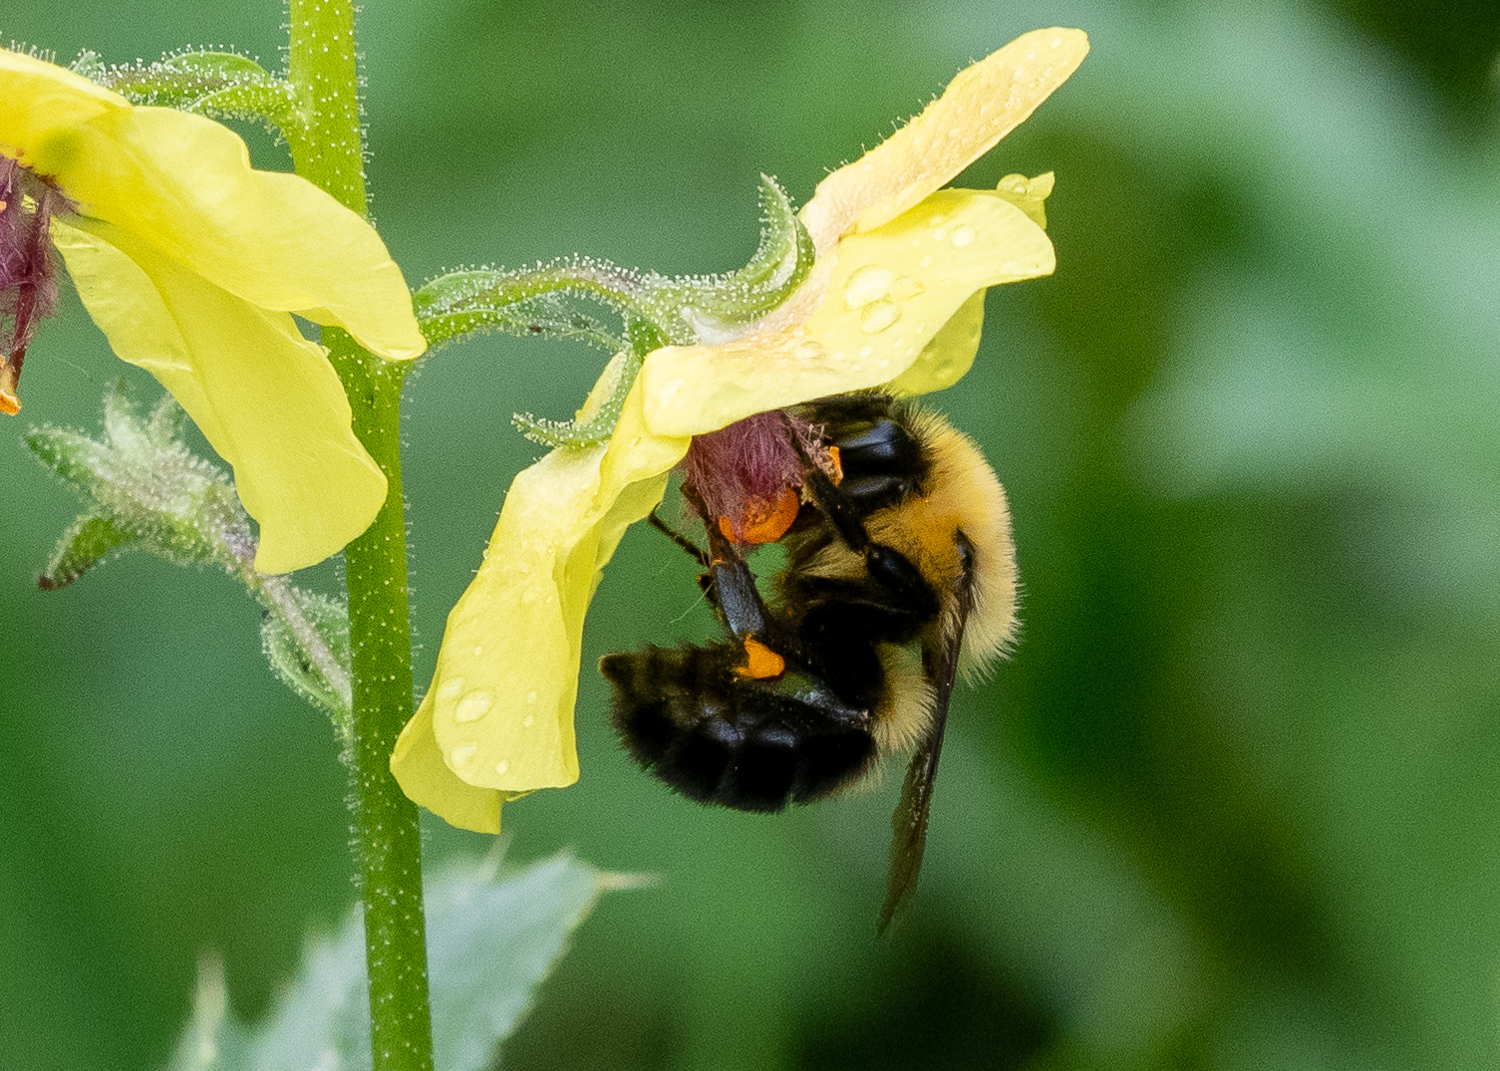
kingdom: Animalia
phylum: Arthropoda
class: Insecta
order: Hymenoptera
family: Apidae
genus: Bombus
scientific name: Bombus bimaculatus
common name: Two-spotted bumble bee
